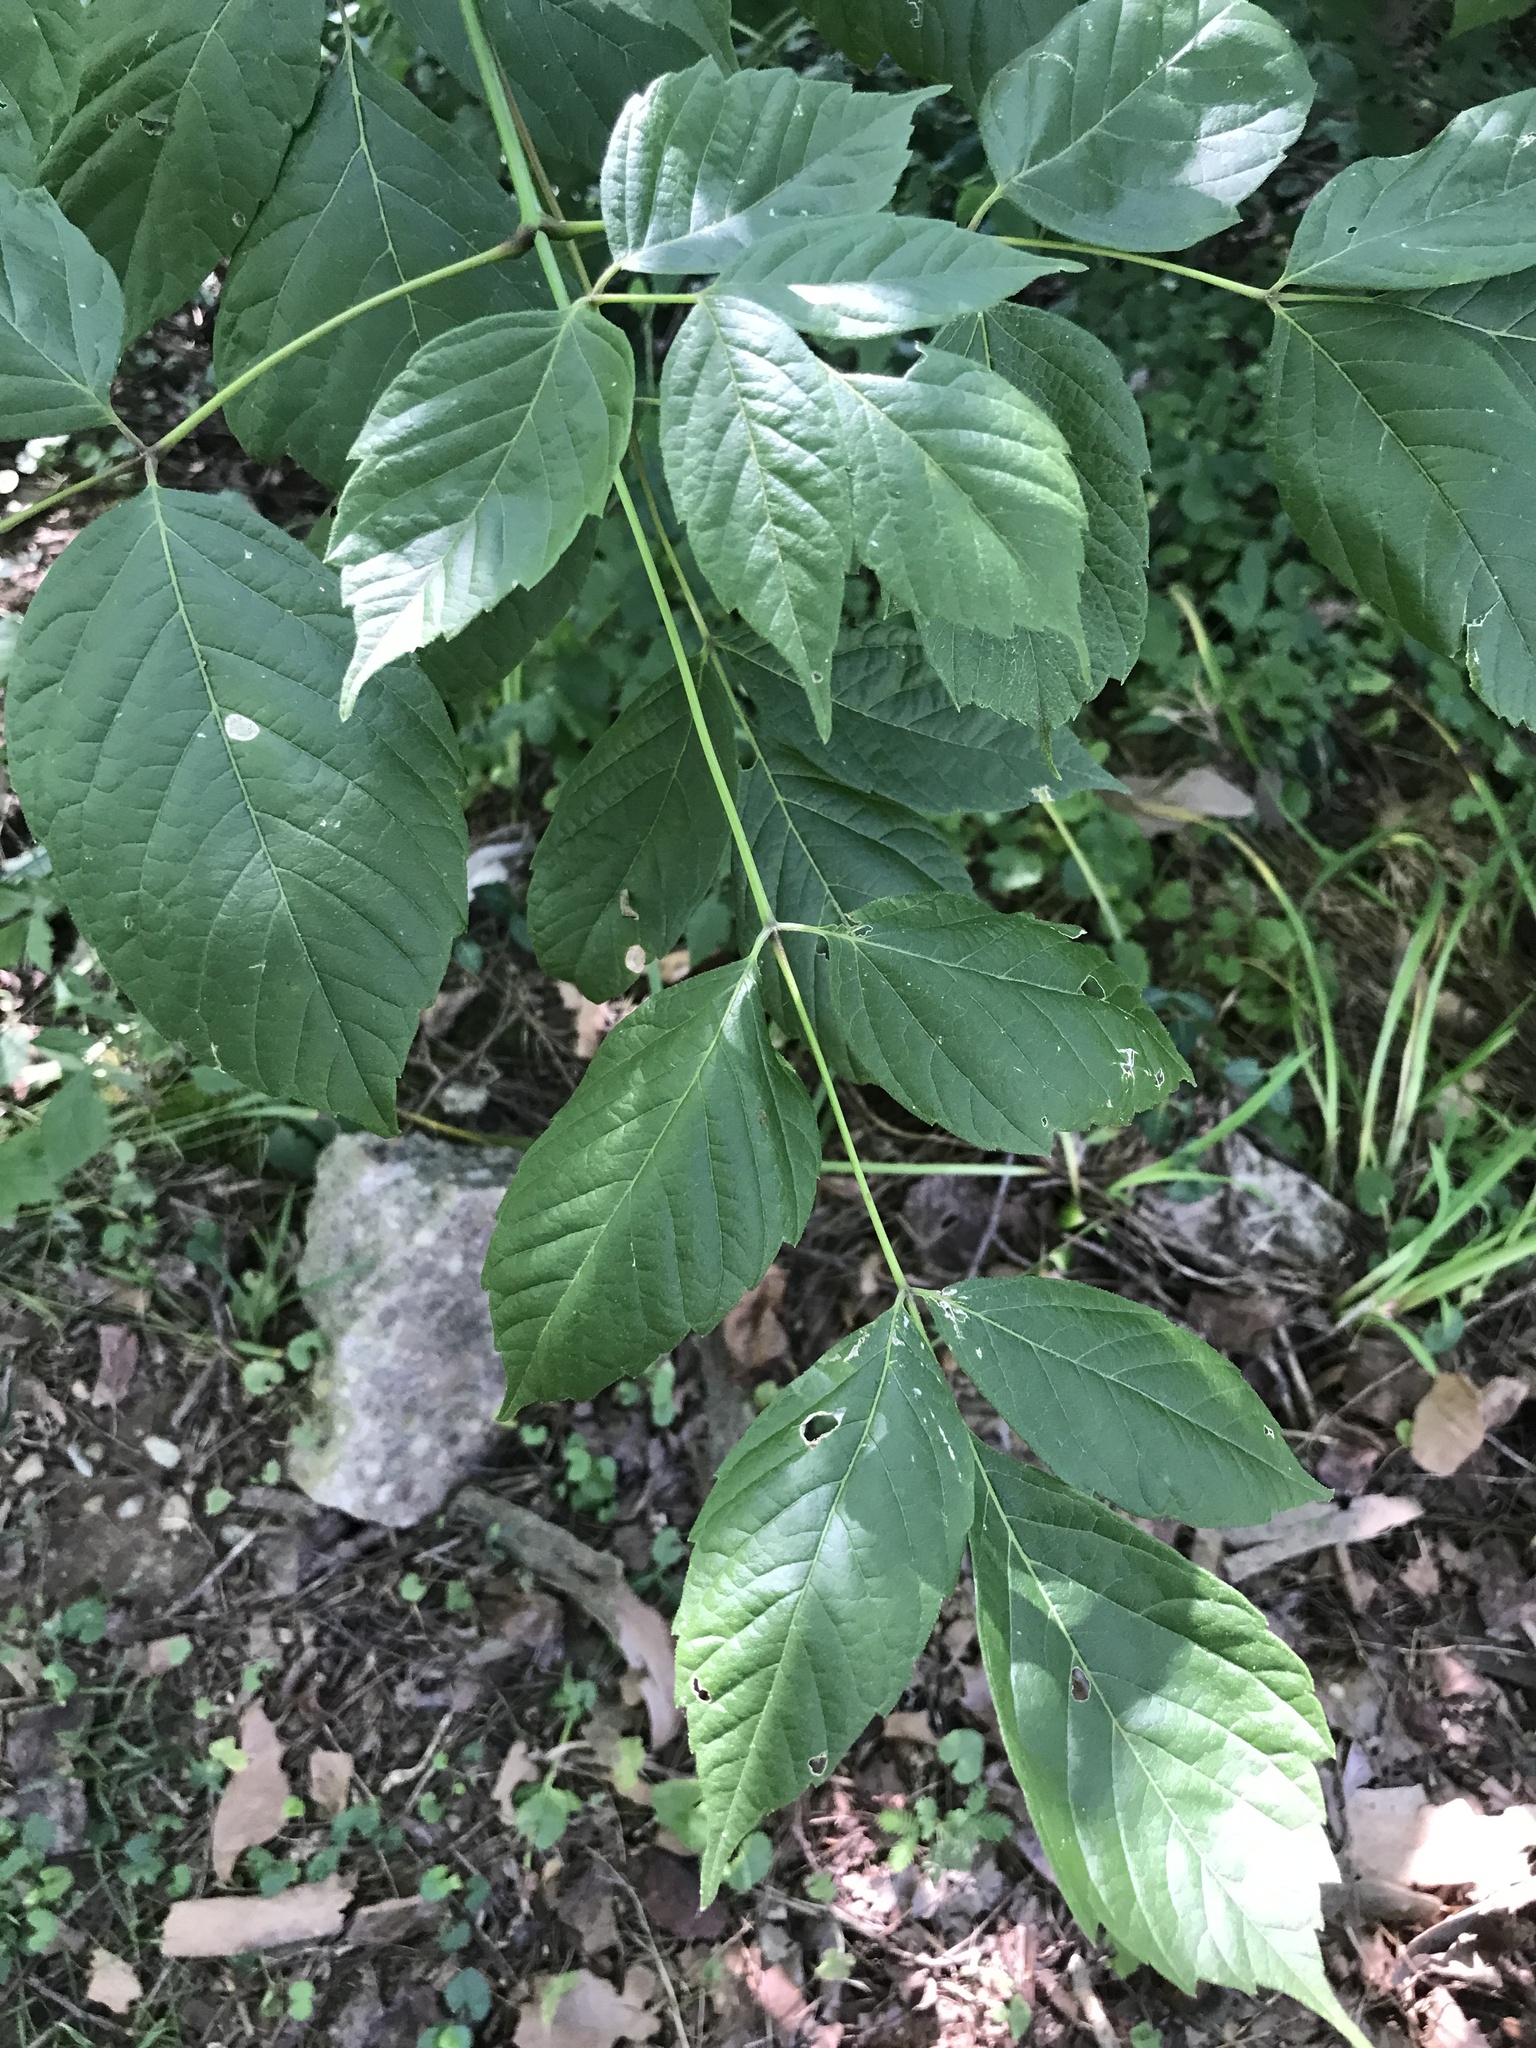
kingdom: Plantae
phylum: Tracheophyta
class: Magnoliopsida
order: Sapindales
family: Sapindaceae
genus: Acer
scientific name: Acer negundo
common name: Ashleaf maple
